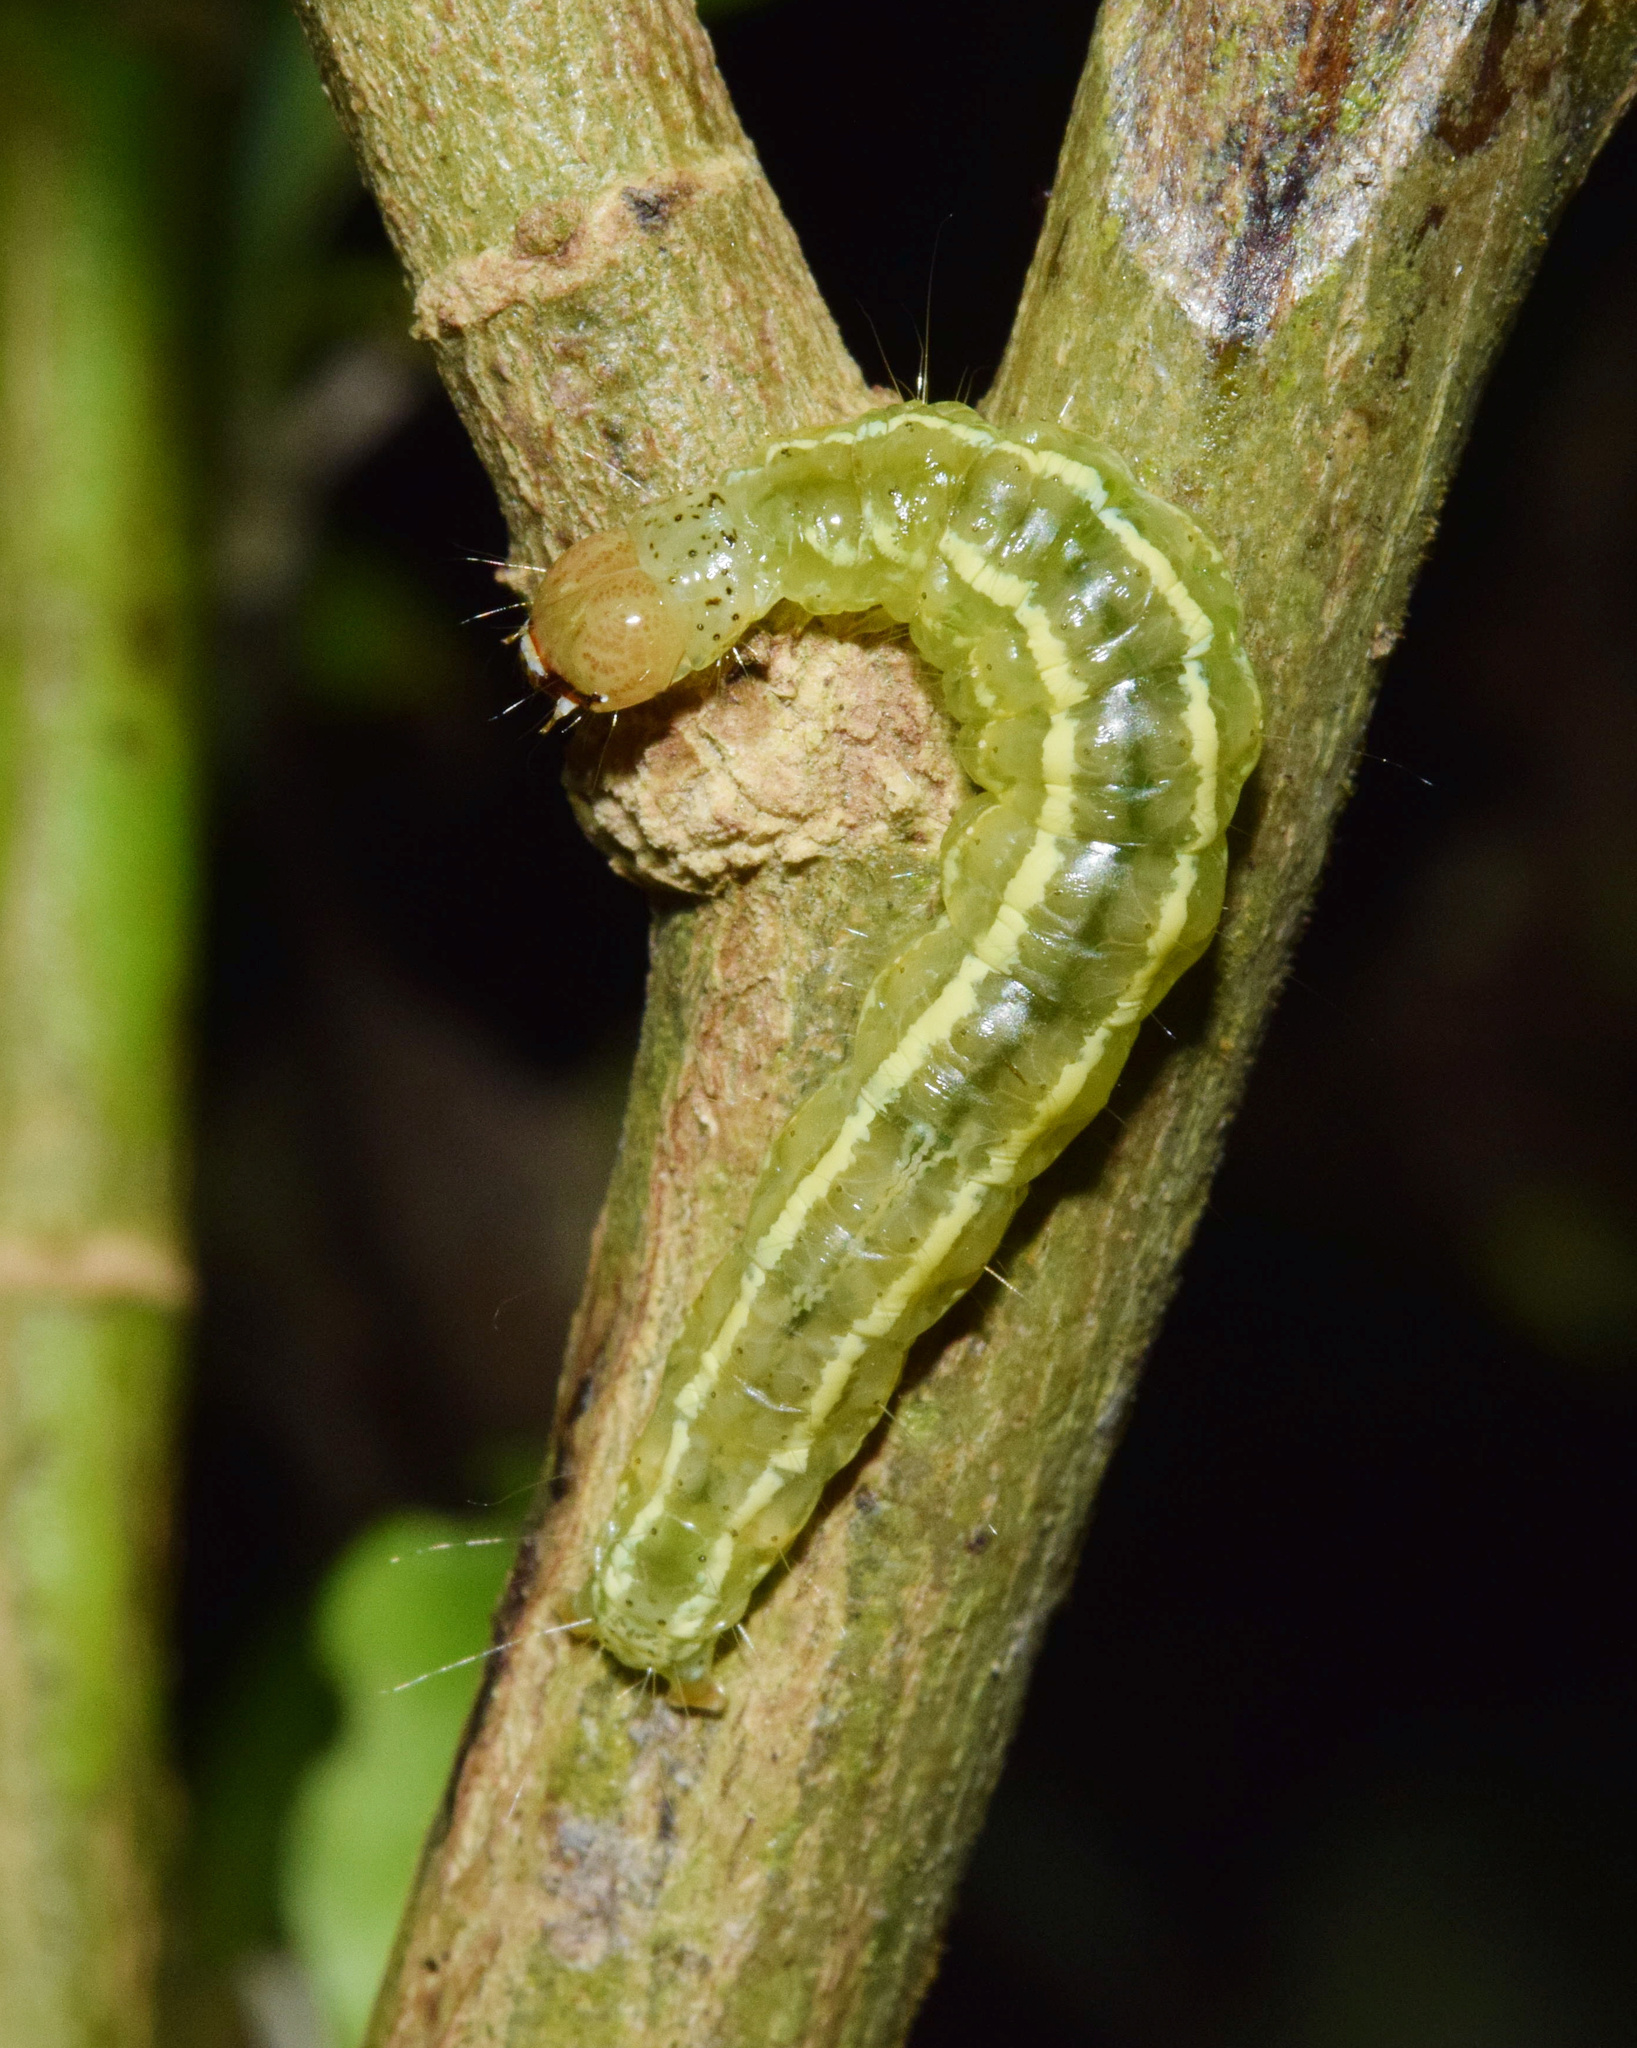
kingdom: Animalia
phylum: Arthropoda
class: Insecta
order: Lepidoptera
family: Crambidae
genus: Diaphania
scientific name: Diaphania indica
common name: Cucumber moth
